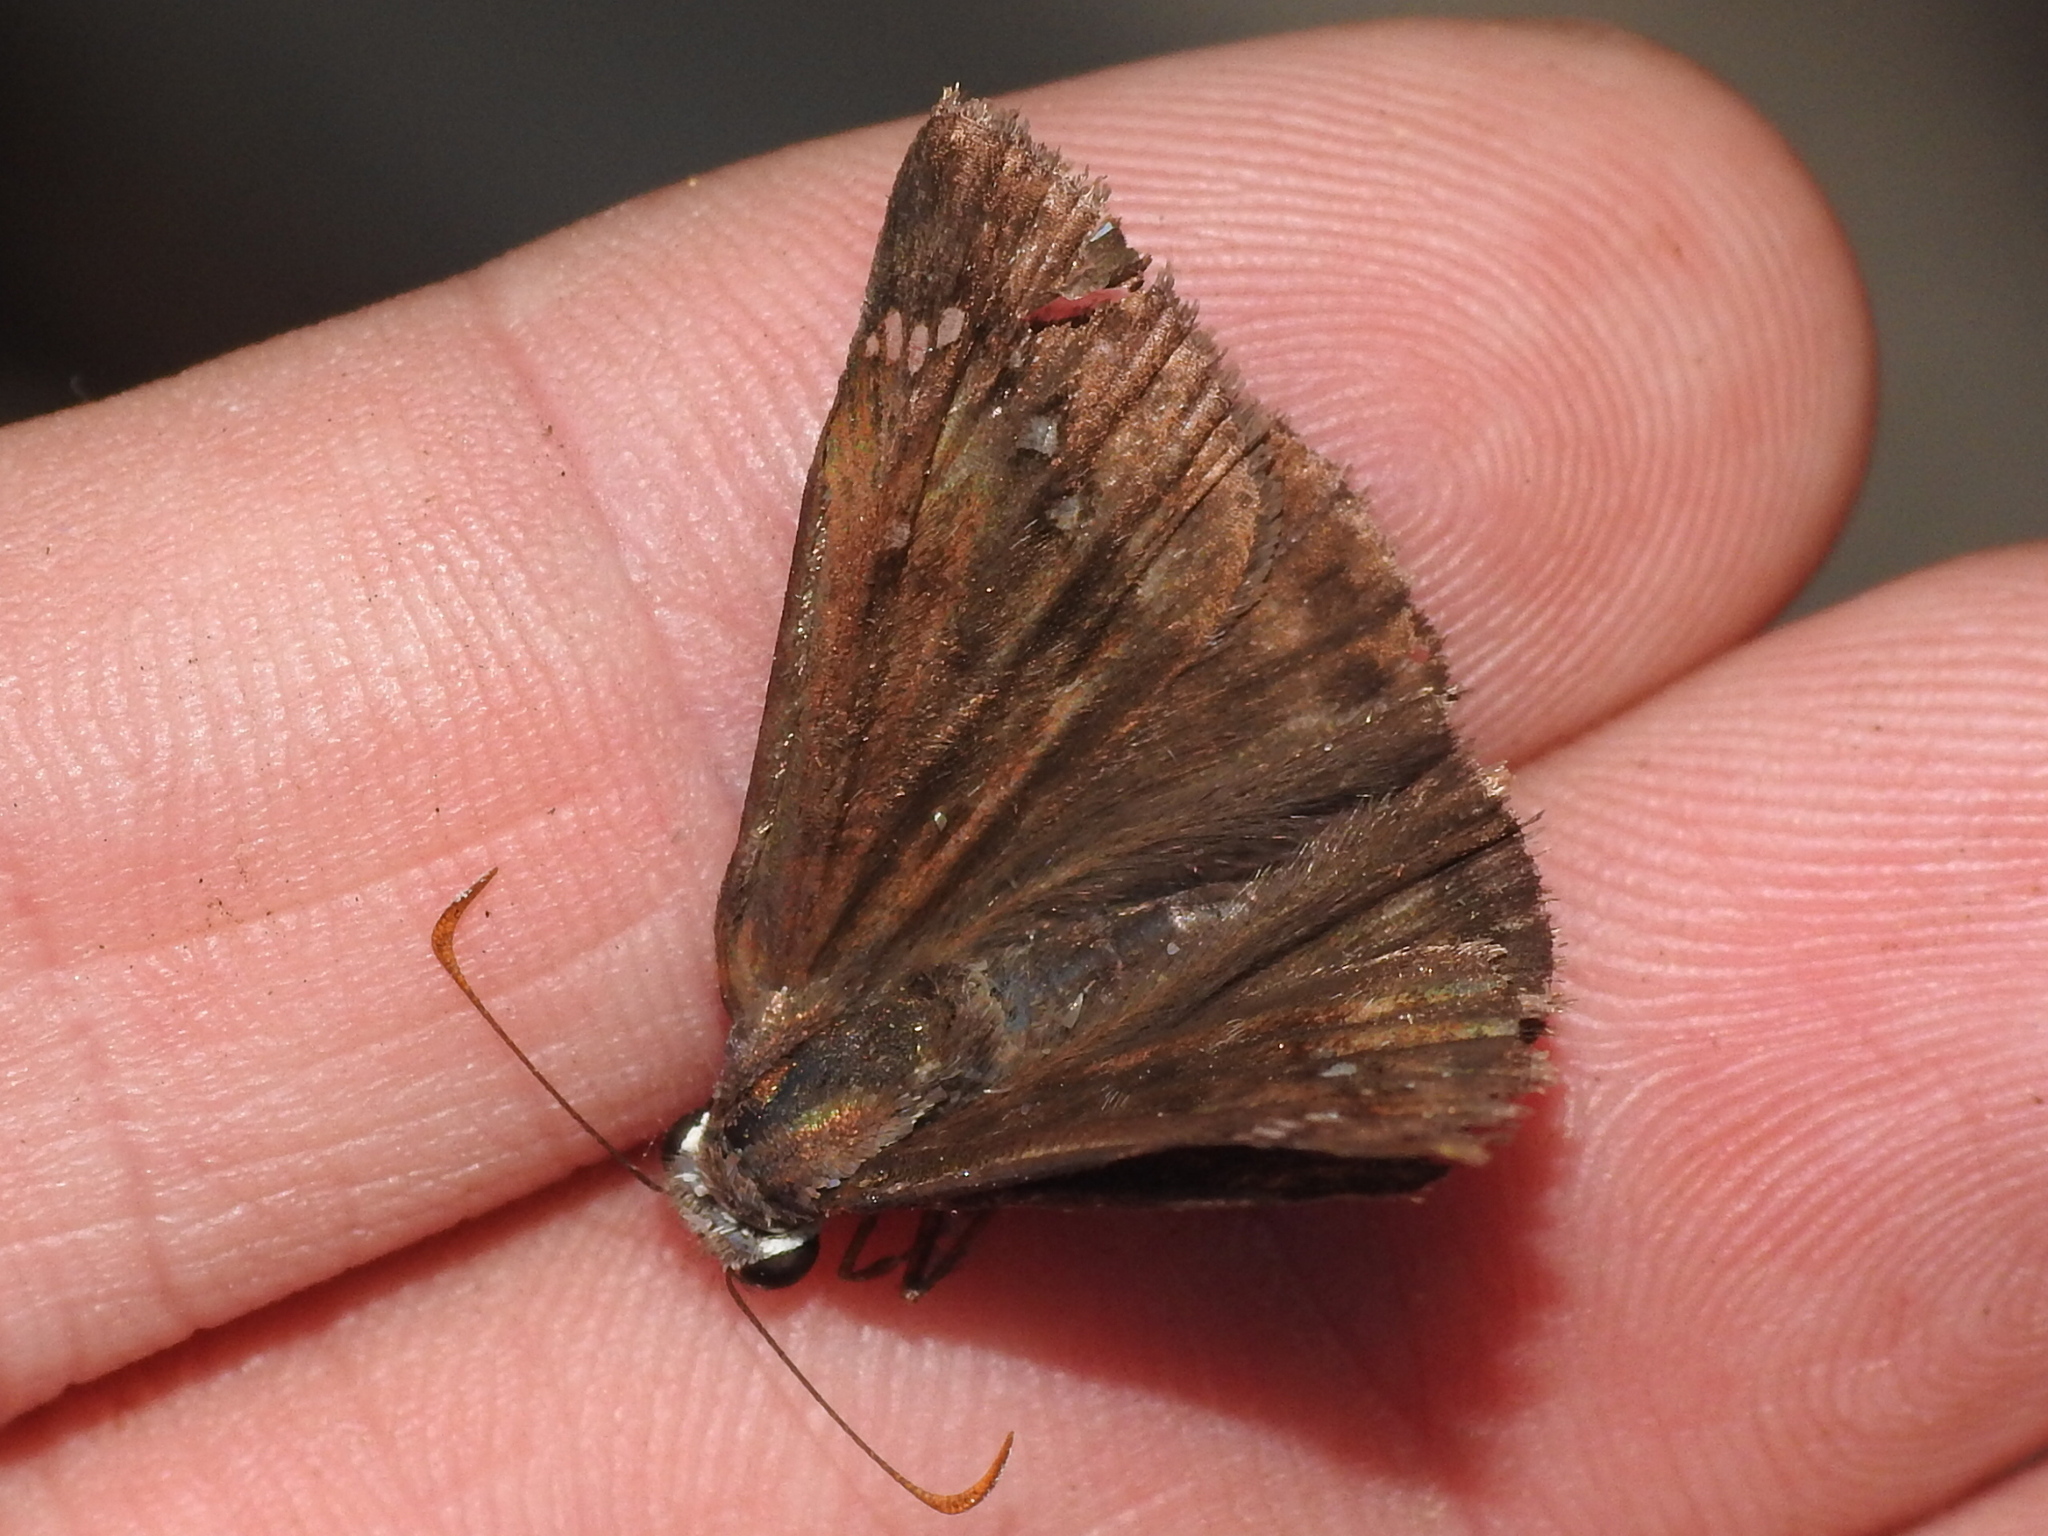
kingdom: Animalia
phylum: Arthropoda
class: Insecta
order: Lepidoptera
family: Hesperiidae
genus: Erynnis
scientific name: Erynnis horatius
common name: Horace's duskywing
